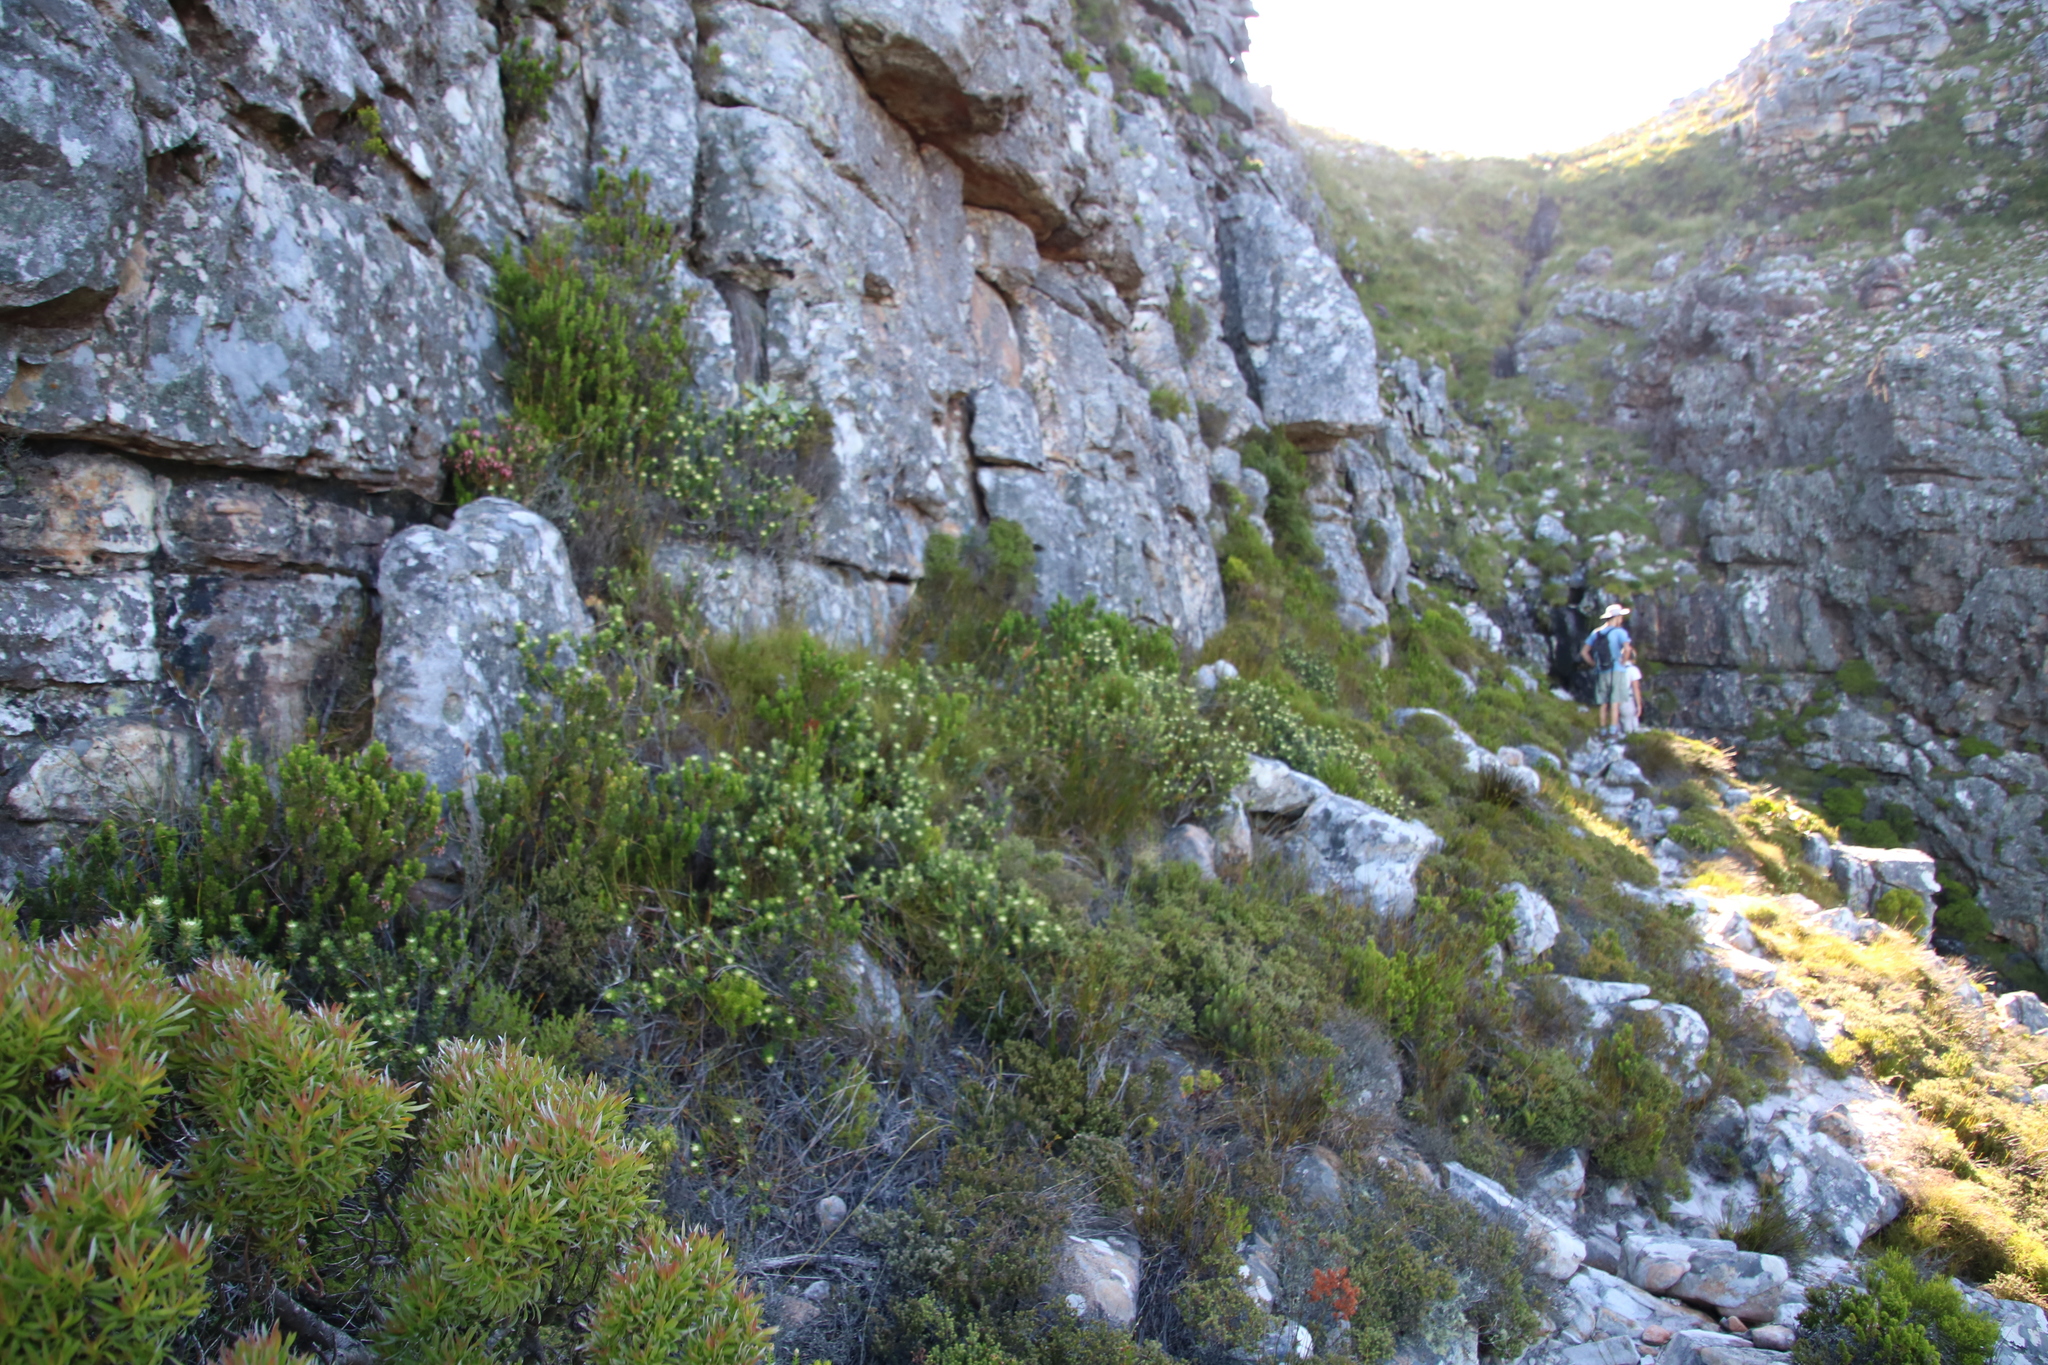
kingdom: Plantae
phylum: Tracheophyta
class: Magnoliopsida
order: Rosales
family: Rhamnaceae
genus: Phylica
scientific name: Phylica dioica
